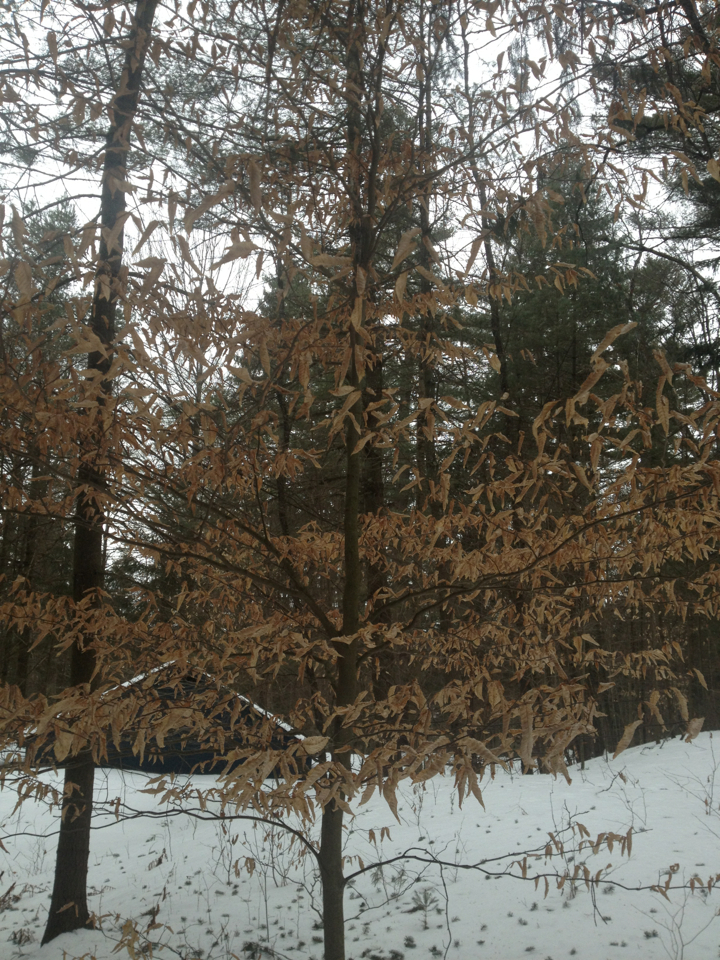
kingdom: Plantae
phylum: Tracheophyta
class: Magnoliopsida
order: Fagales
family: Fagaceae
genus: Fagus
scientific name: Fagus grandifolia
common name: American beech
